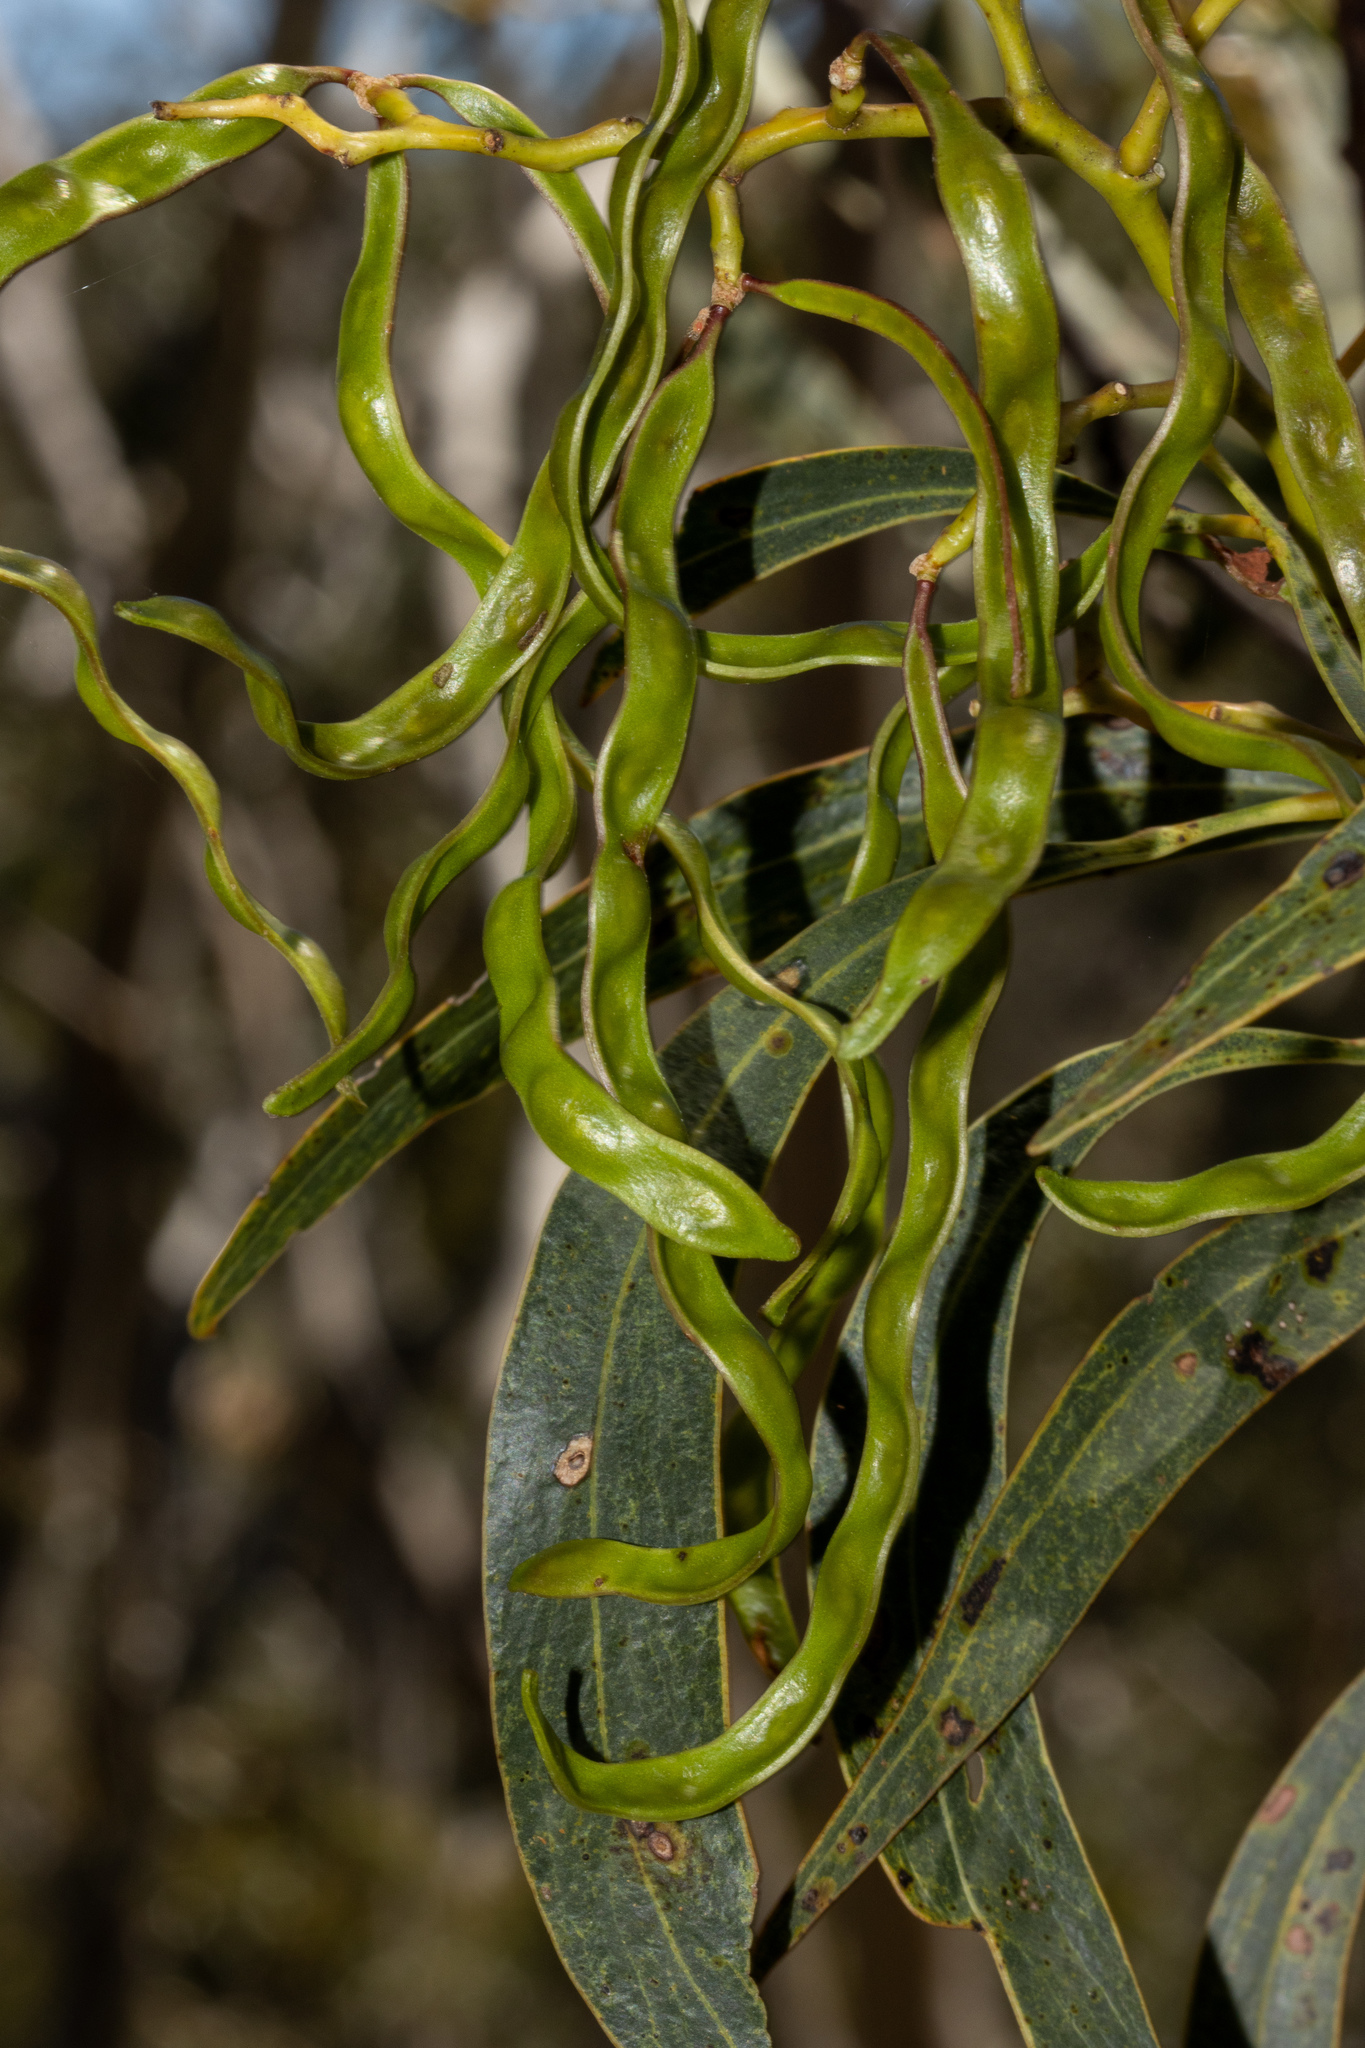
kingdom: Plantae
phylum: Tracheophyta
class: Magnoliopsida
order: Fabales
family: Fabaceae
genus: Acacia
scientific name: Acacia pycnantha
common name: Golden wattle
